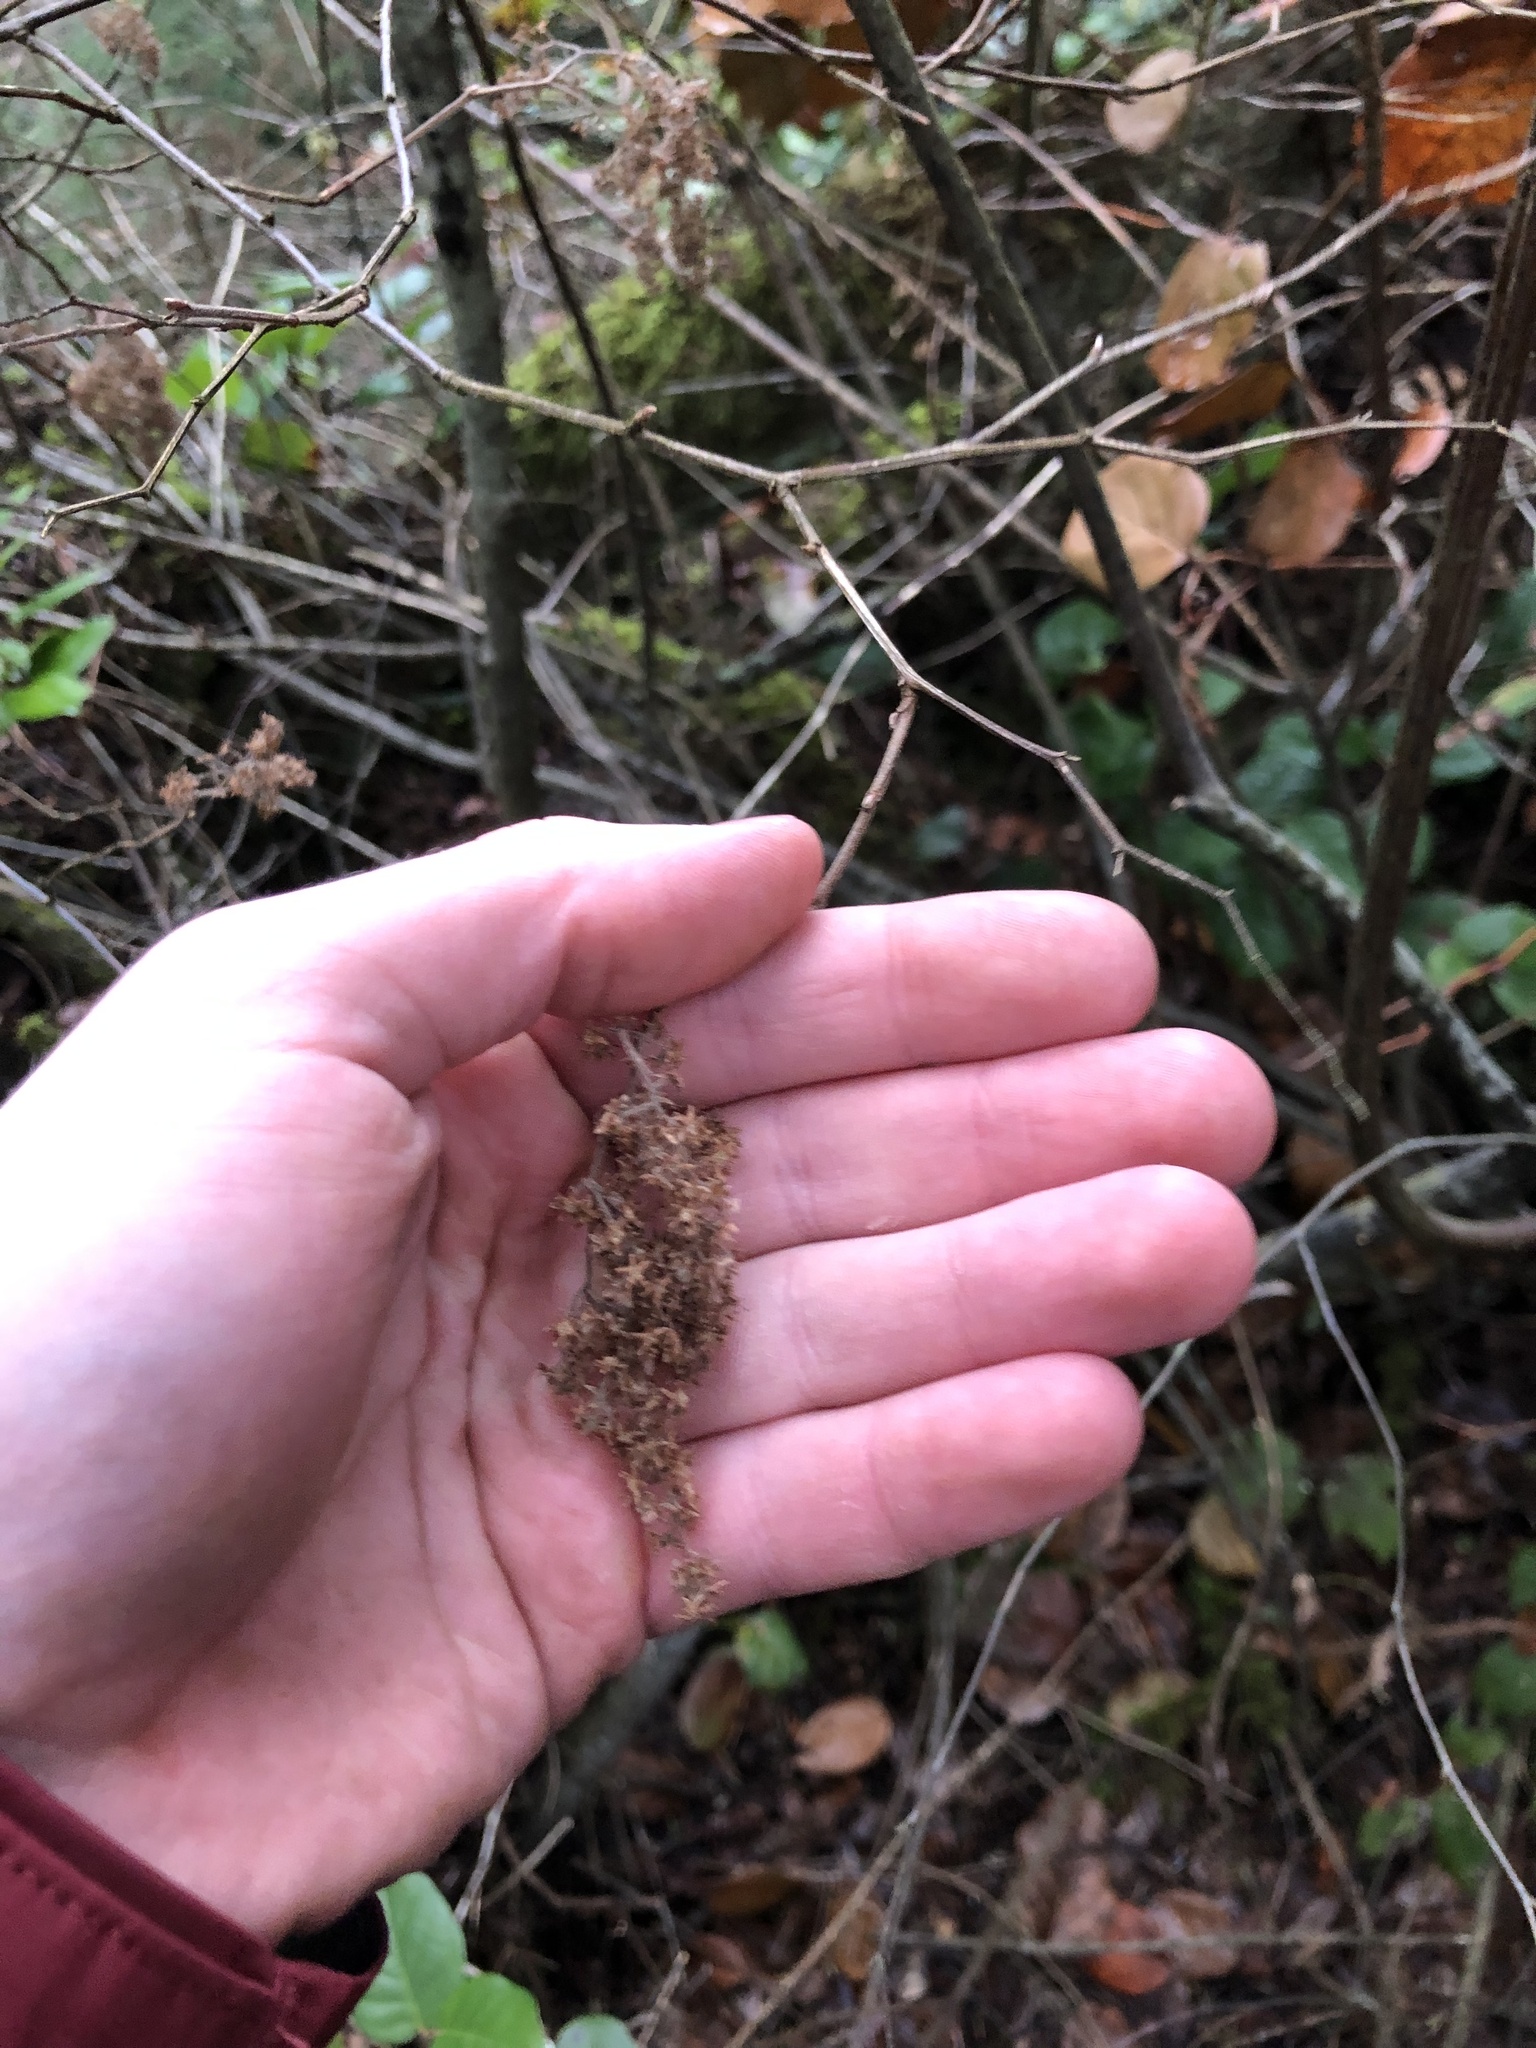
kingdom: Plantae
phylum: Tracheophyta
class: Magnoliopsida
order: Rosales
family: Rosaceae
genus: Holodiscus
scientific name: Holodiscus discolor
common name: Oceanspray
